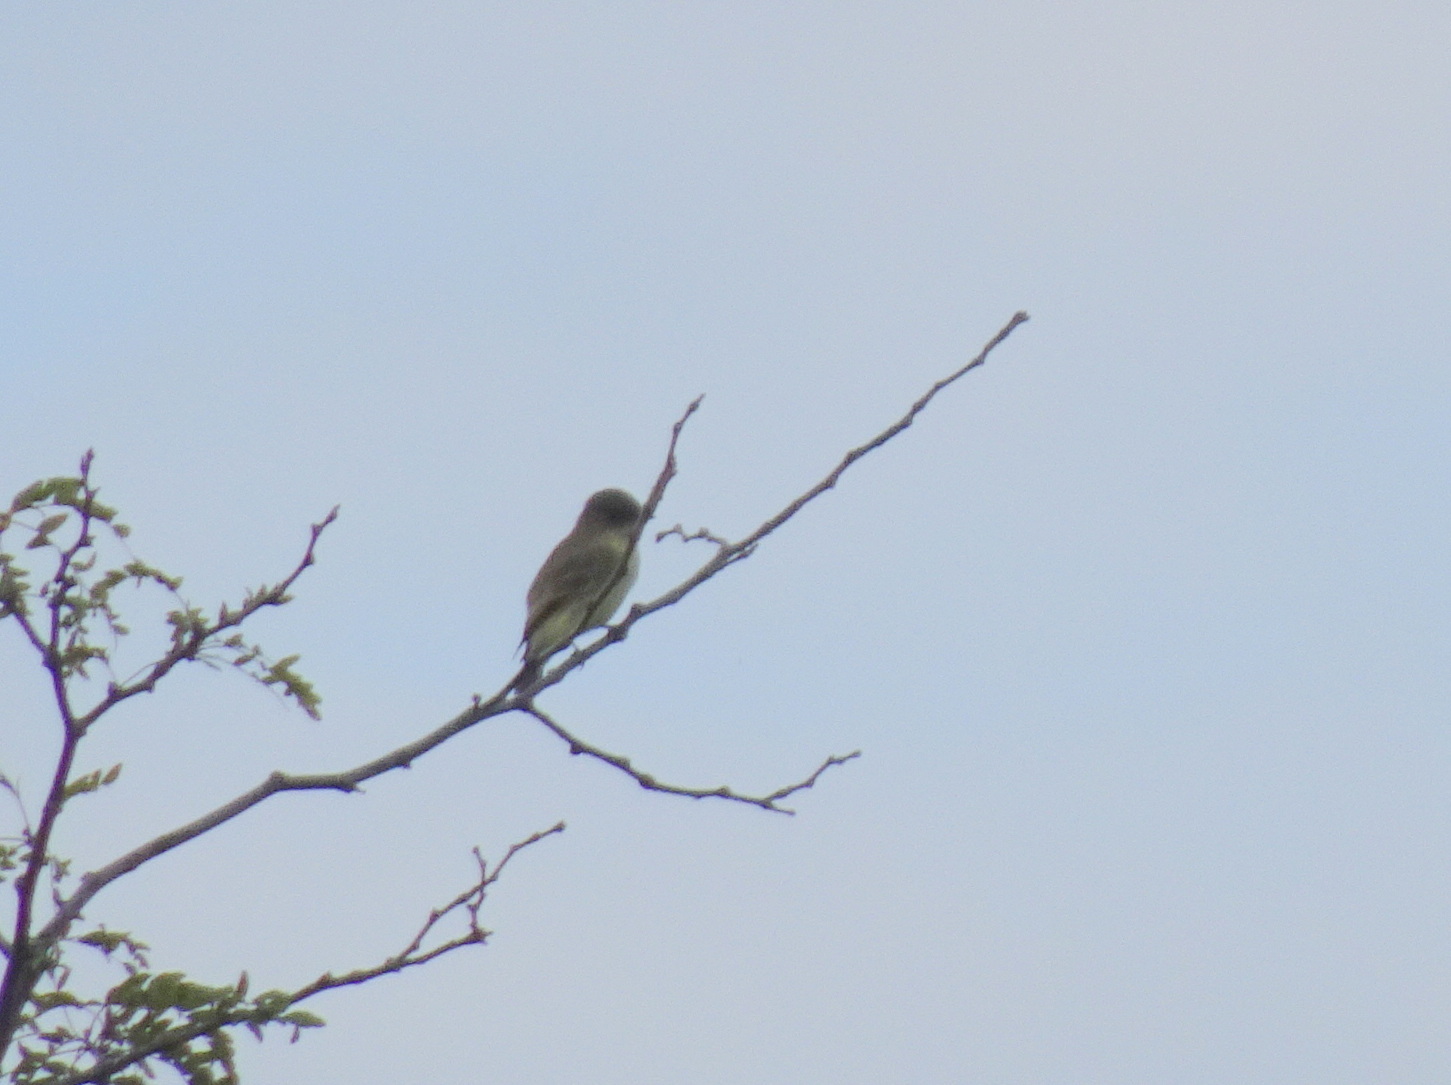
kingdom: Animalia
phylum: Chordata
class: Aves
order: Passeriformes
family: Tyrannidae
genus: Sayornis
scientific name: Sayornis phoebe
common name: Eastern phoebe
